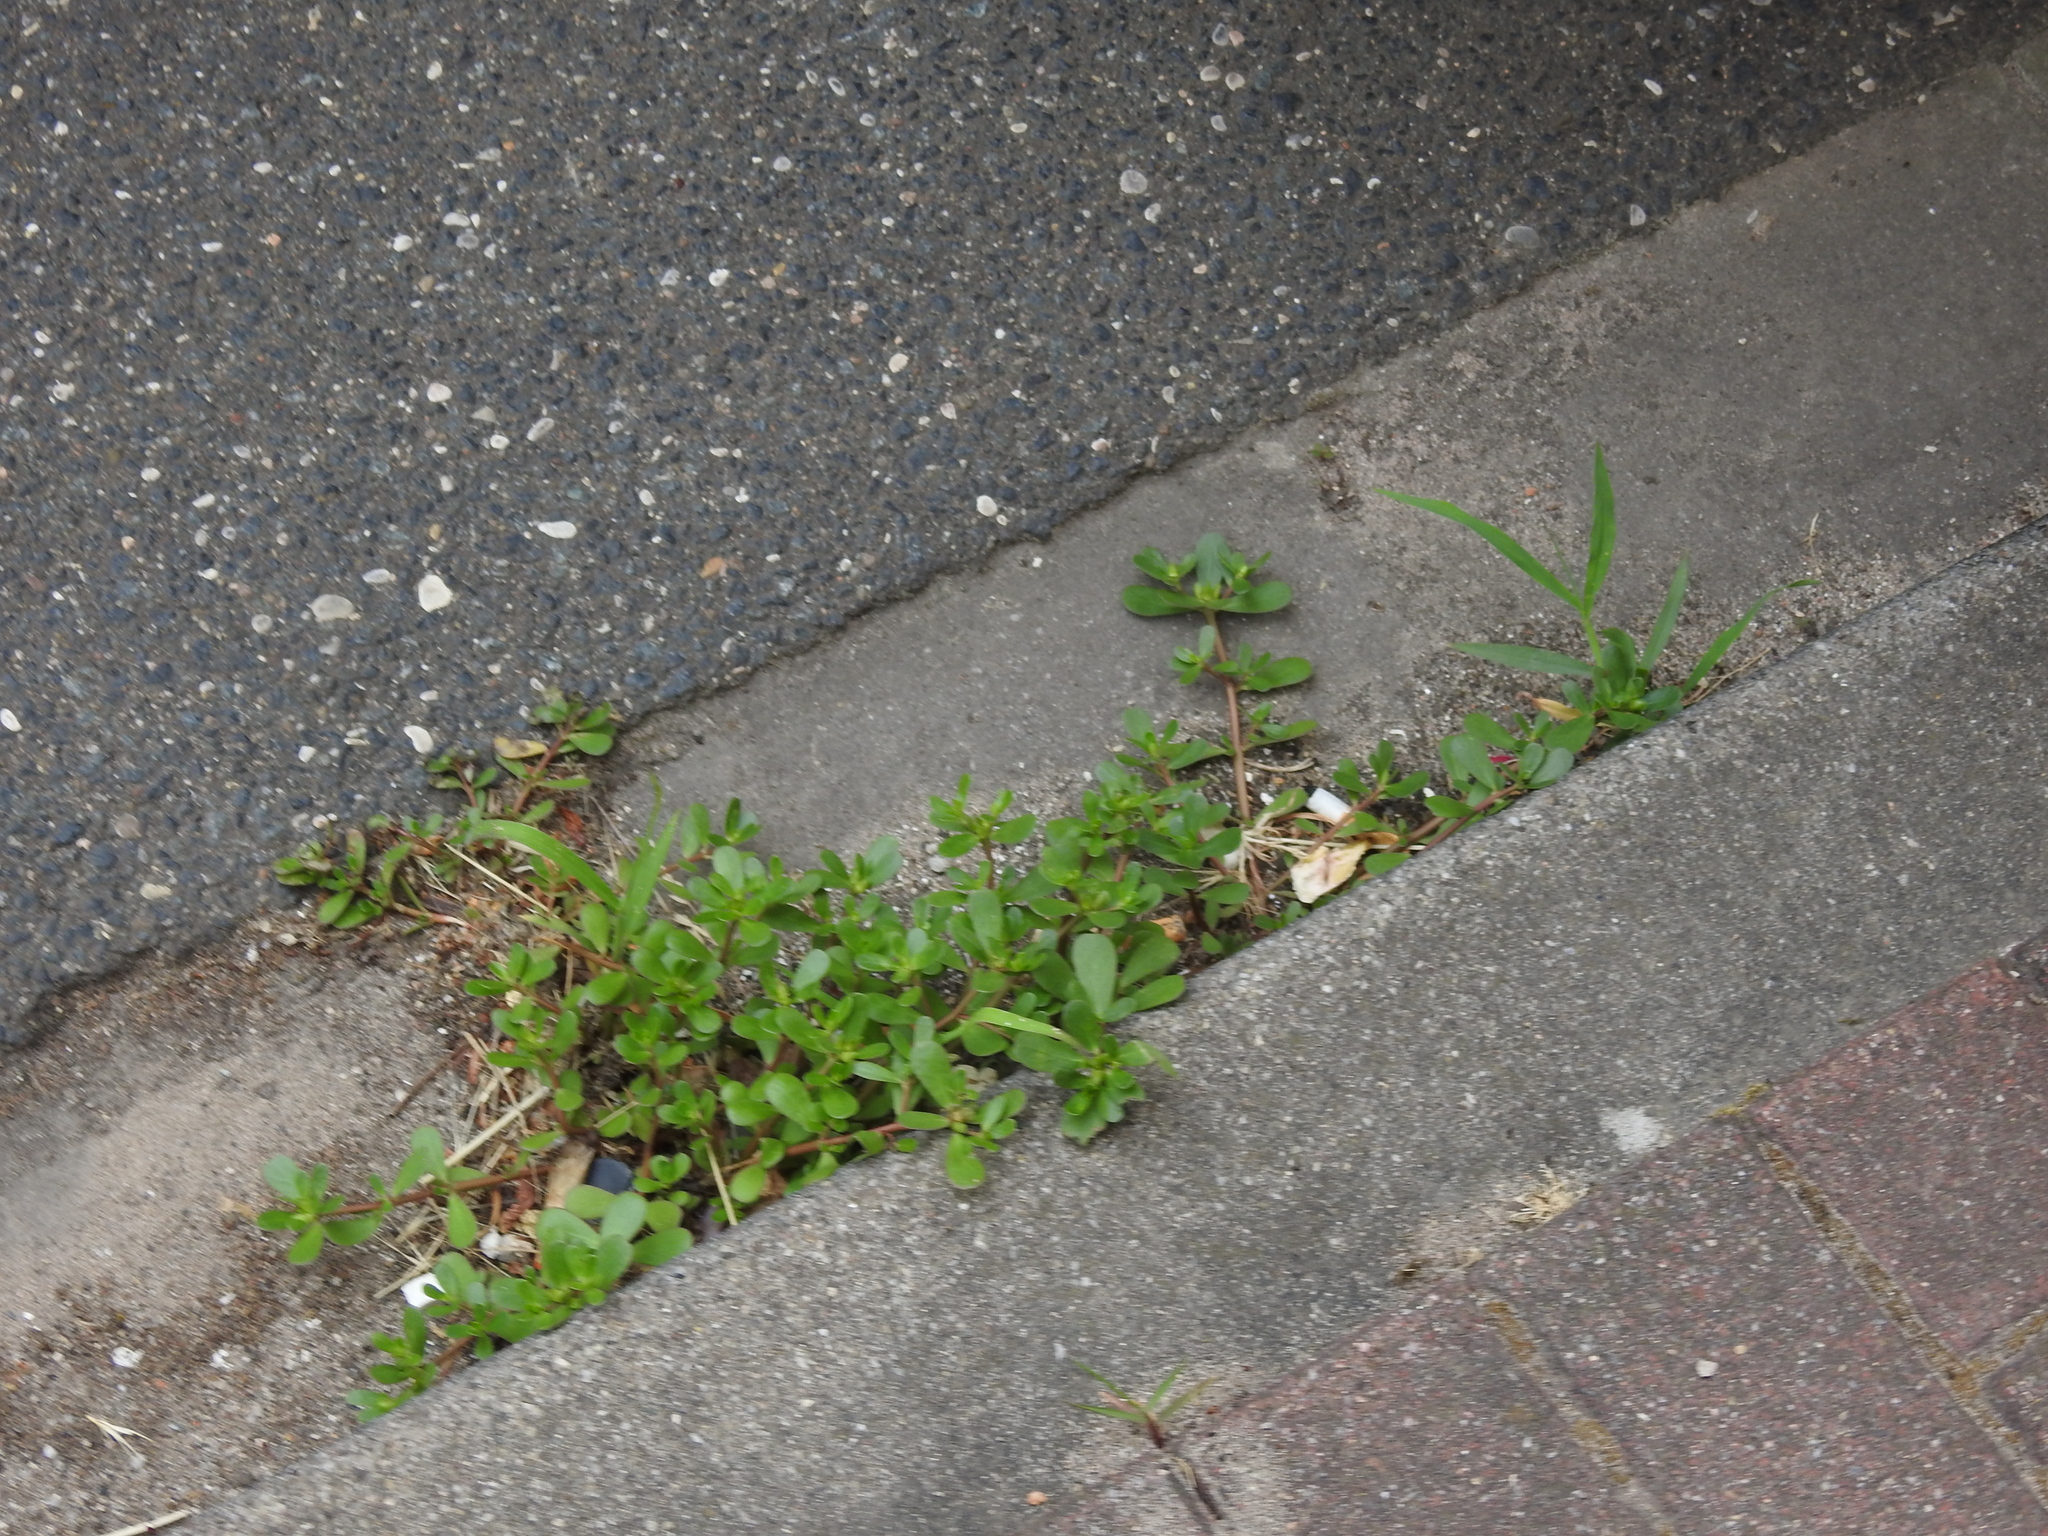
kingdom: Plantae
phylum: Tracheophyta
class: Magnoliopsida
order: Caryophyllales
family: Portulacaceae
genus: Portulaca
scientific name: Portulaca oleracea
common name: Common purslane
